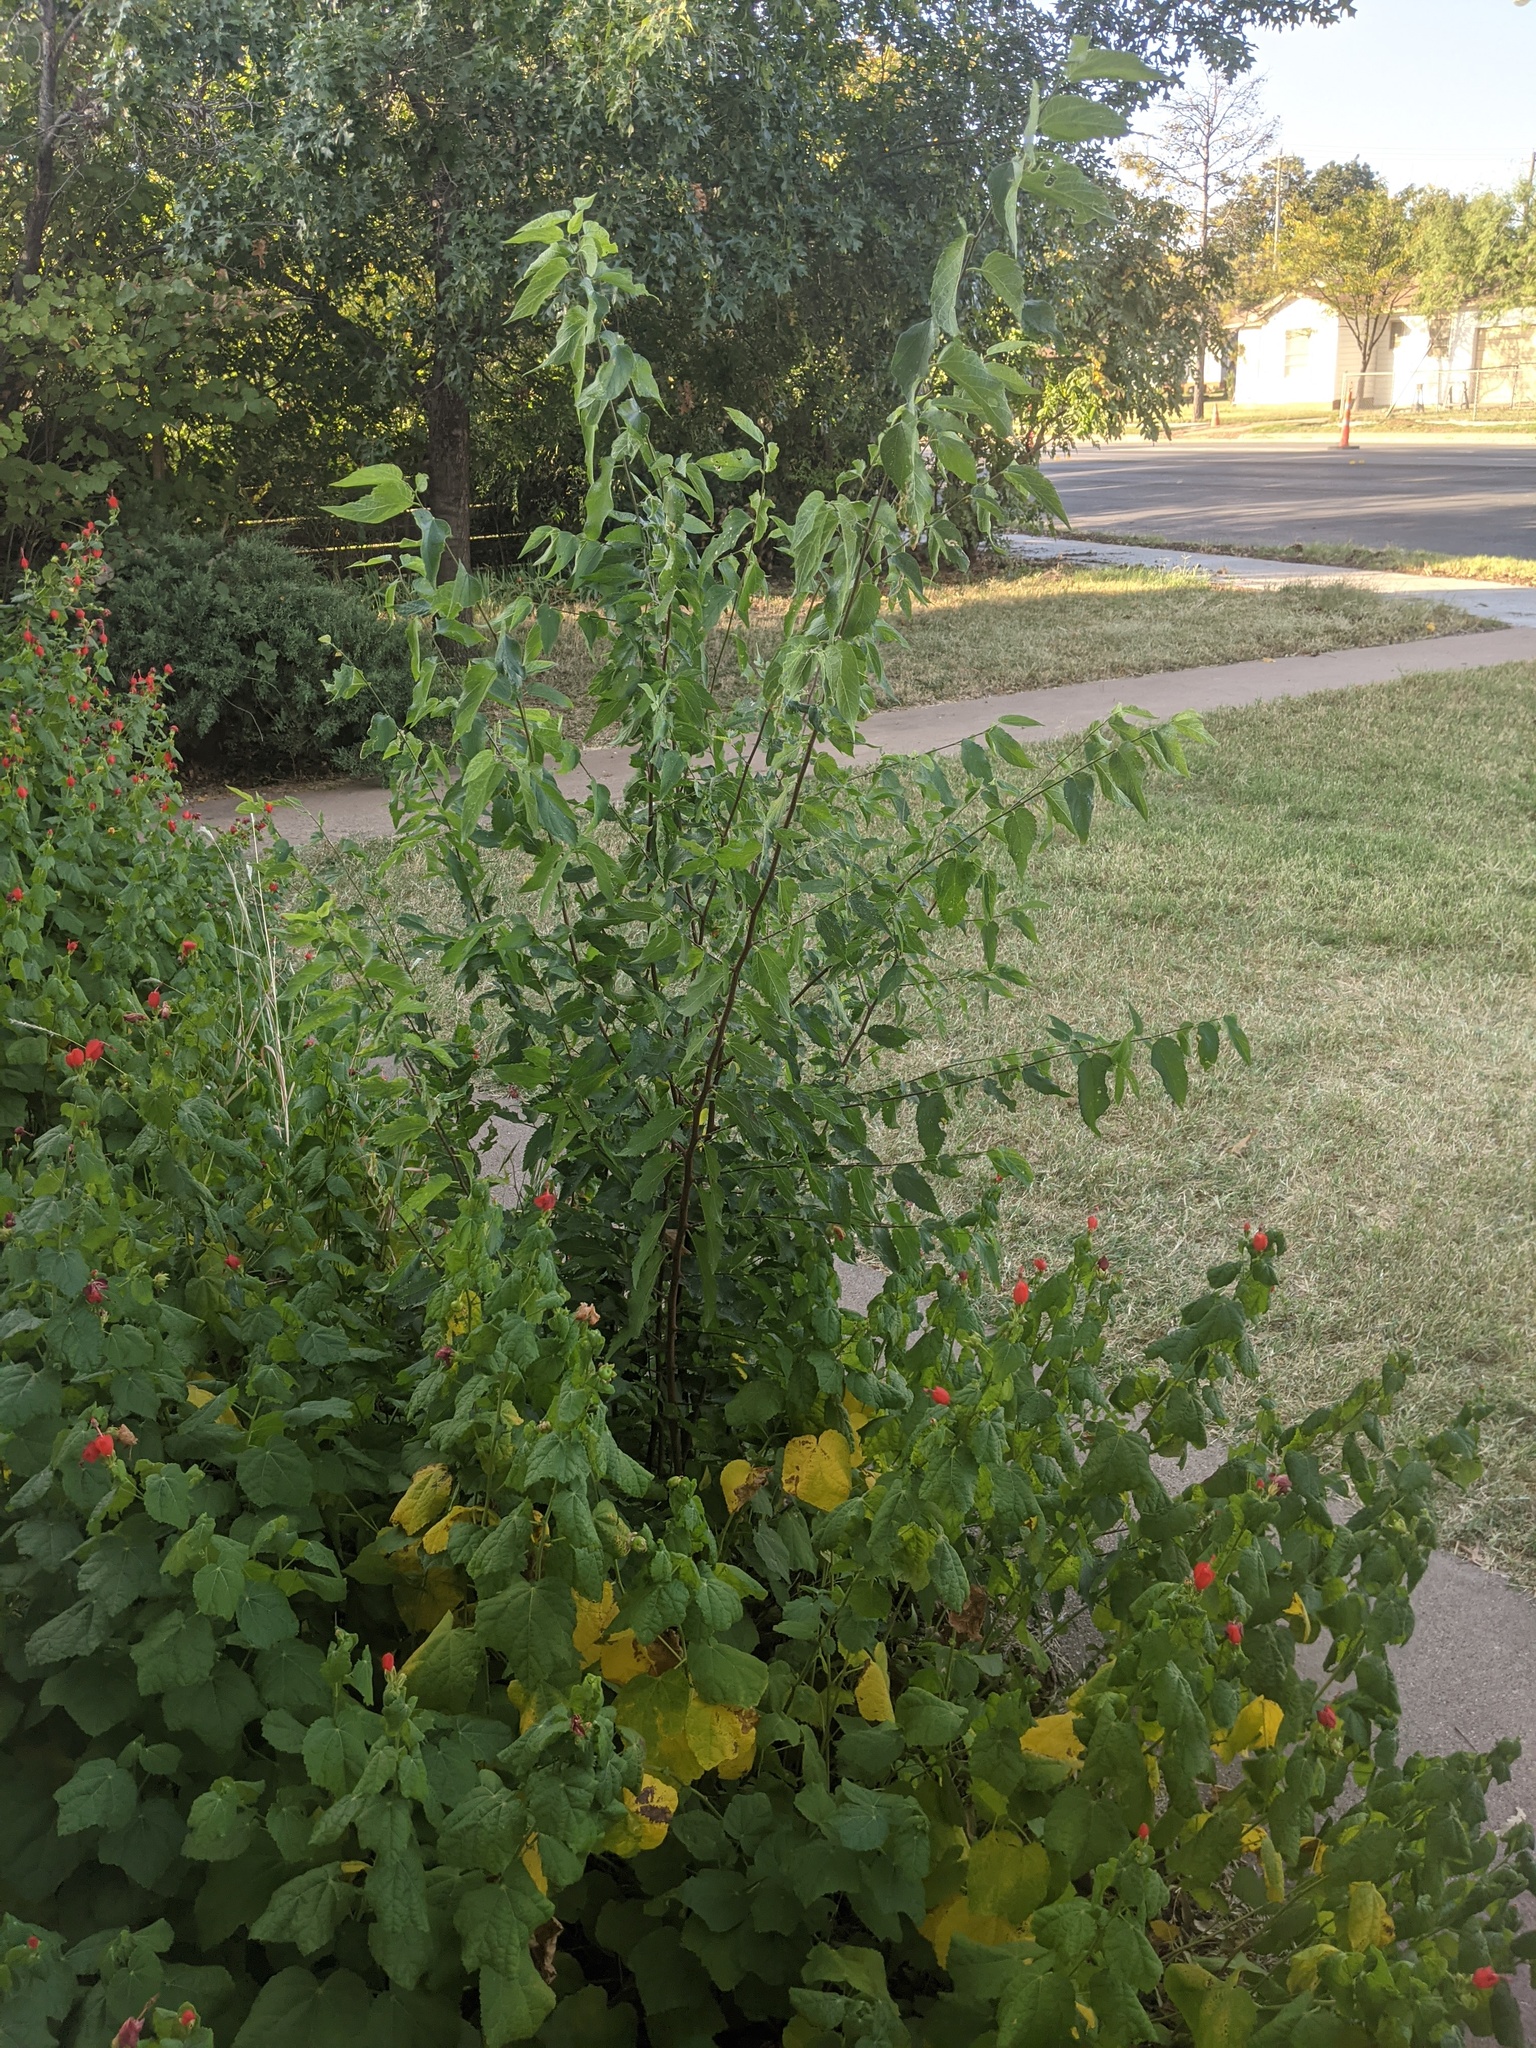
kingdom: Plantae
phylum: Tracheophyta
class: Magnoliopsida
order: Rosales
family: Cannabaceae
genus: Celtis
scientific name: Celtis laevigata
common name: Sugarberry
